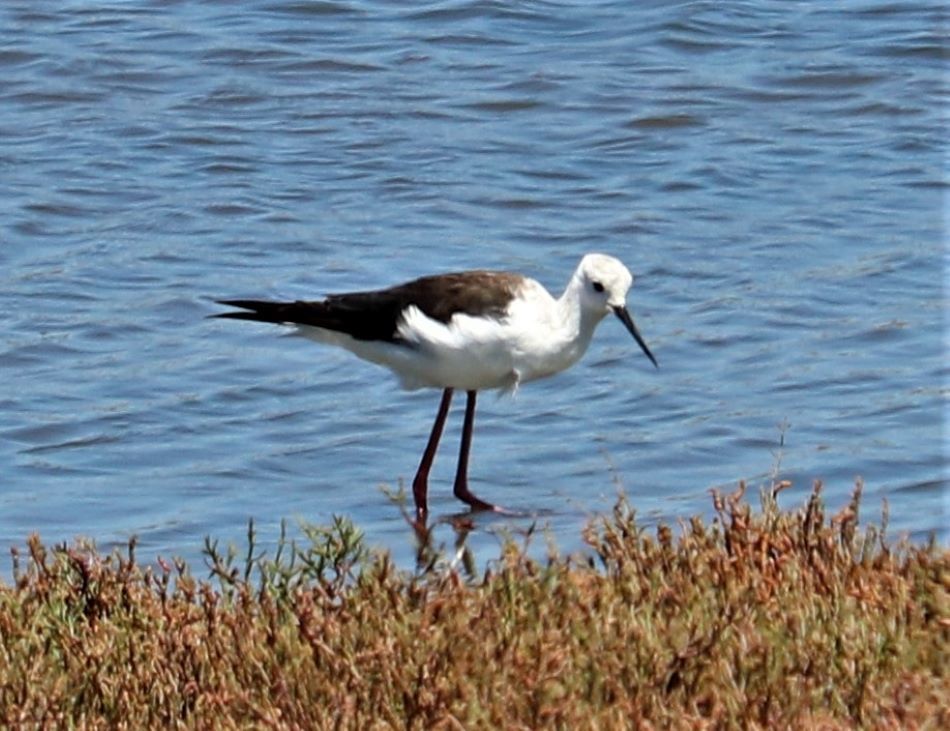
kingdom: Animalia
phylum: Chordata
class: Aves
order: Charadriiformes
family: Recurvirostridae
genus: Himantopus
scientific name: Himantopus himantopus
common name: Black-winged stilt
